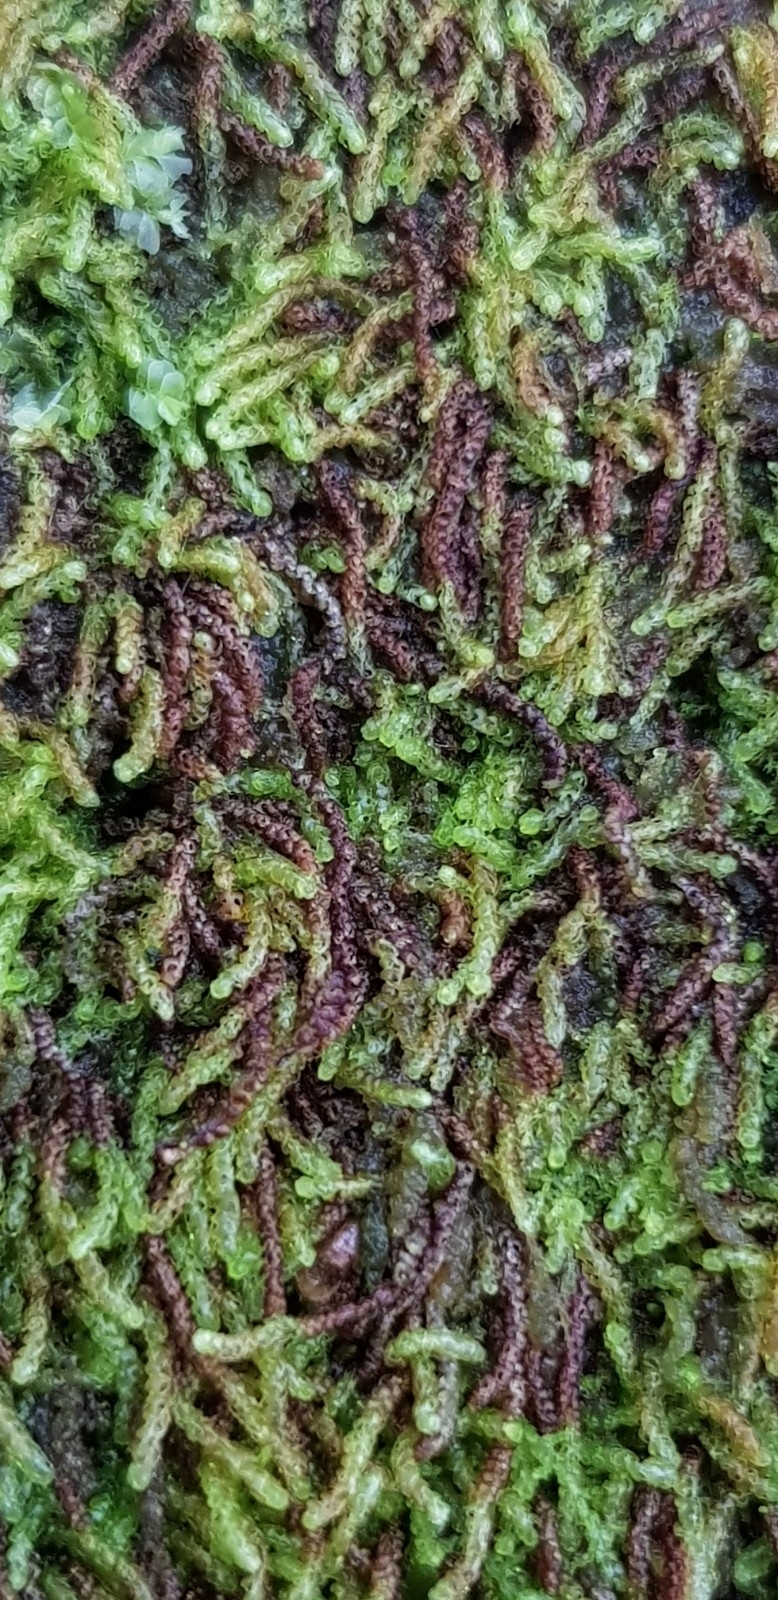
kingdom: Plantae
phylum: Marchantiophyta
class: Jungermanniopsida
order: Jungermanniales
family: Cephaloziaceae
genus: Nowellia
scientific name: Nowellia curvifolia
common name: Wood rustwort
